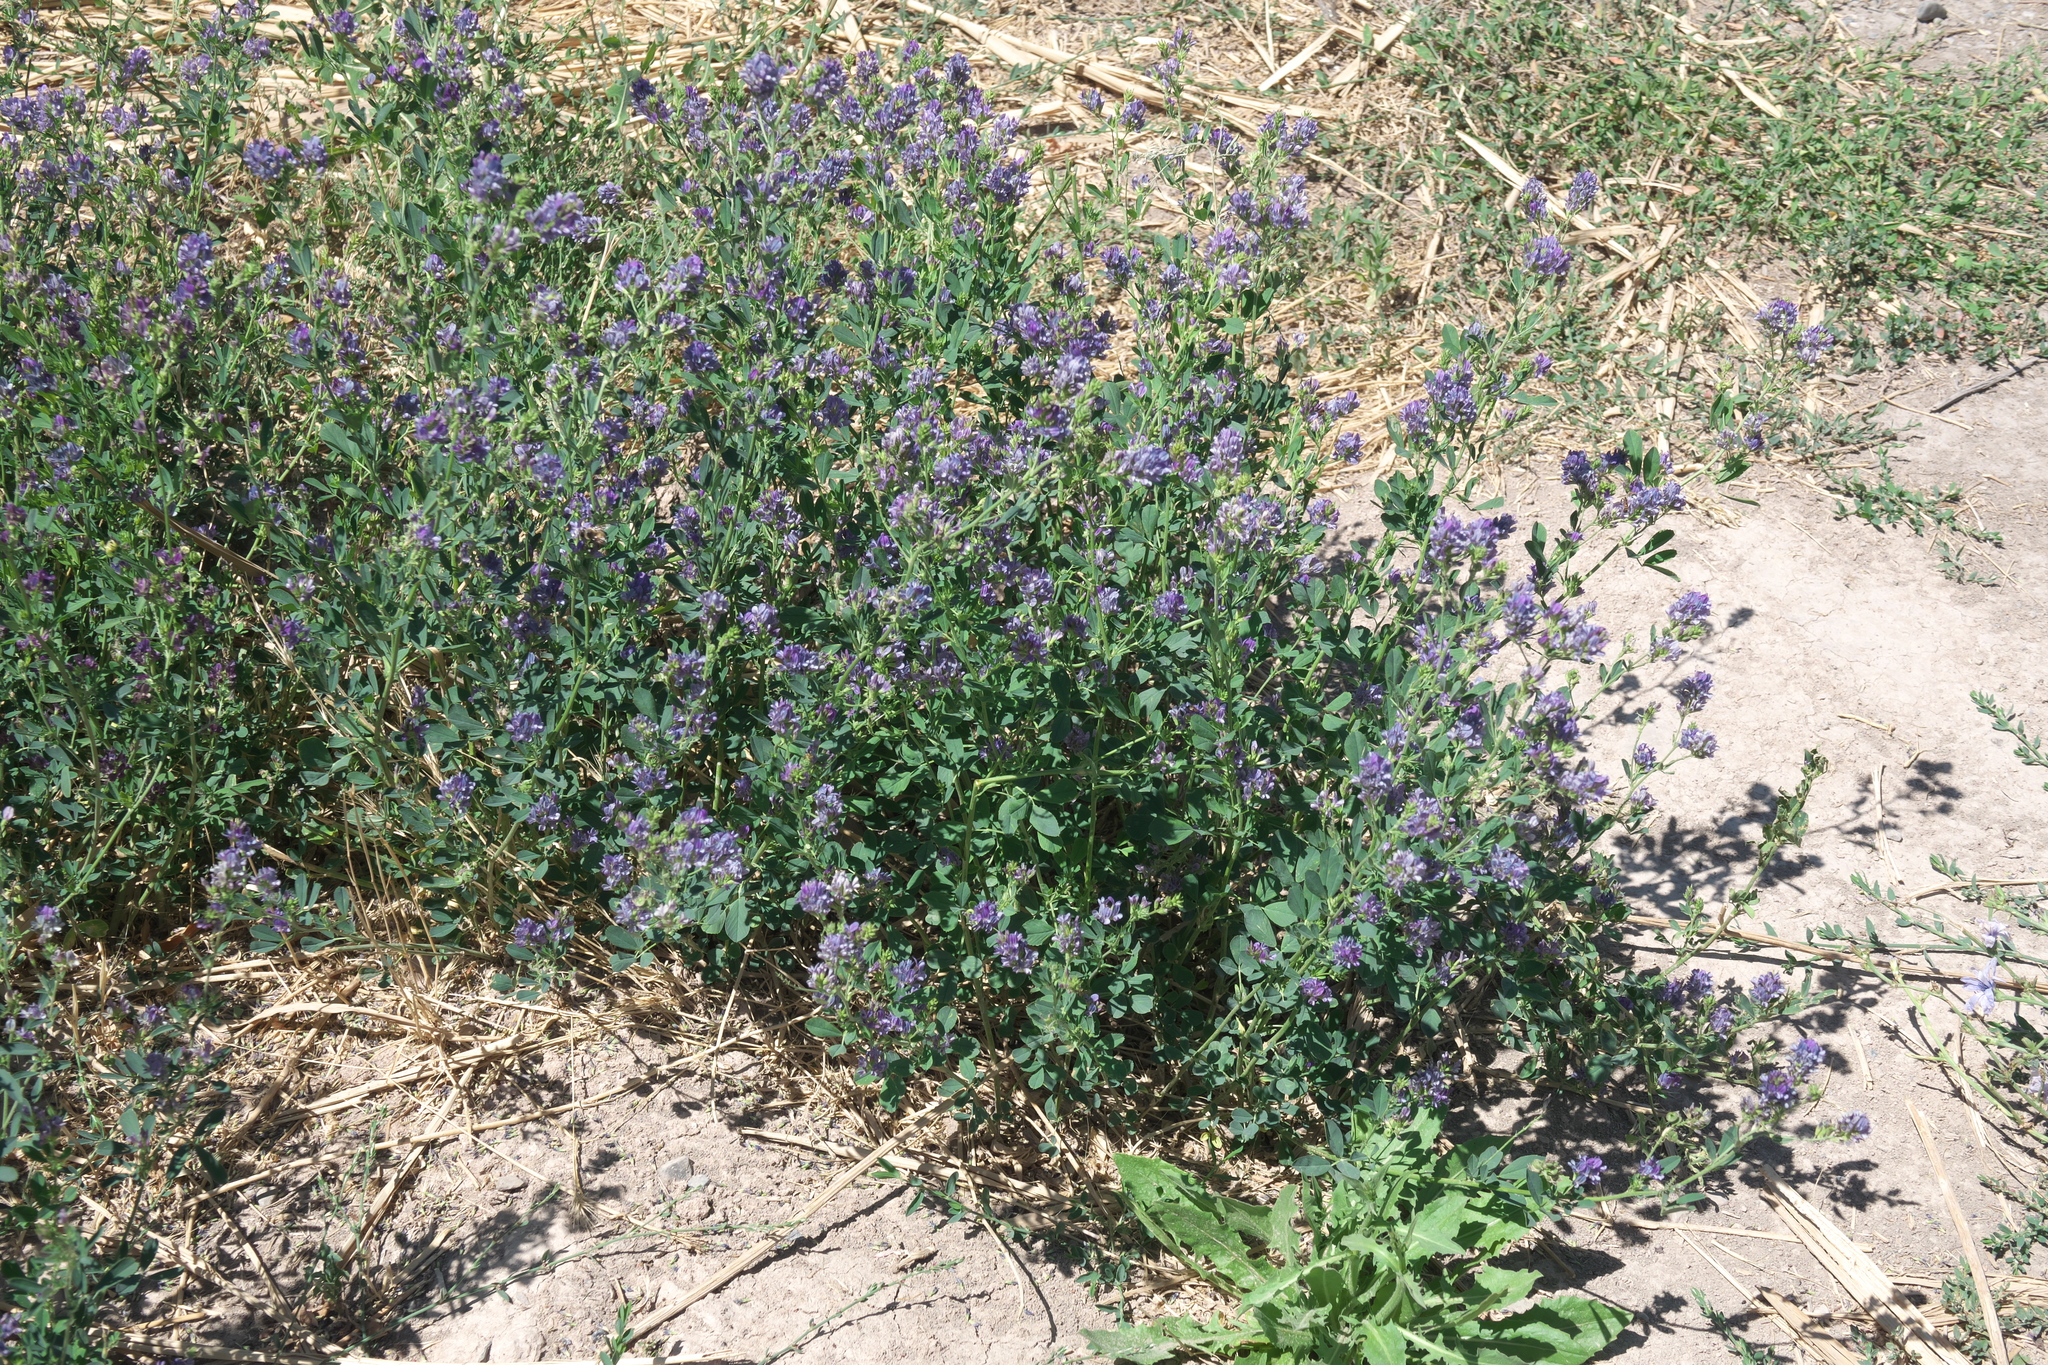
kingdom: Plantae
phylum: Tracheophyta
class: Magnoliopsida
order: Fabales
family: Fabaceae
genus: Medicago
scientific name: Medicago sativa
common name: Alfalfa
